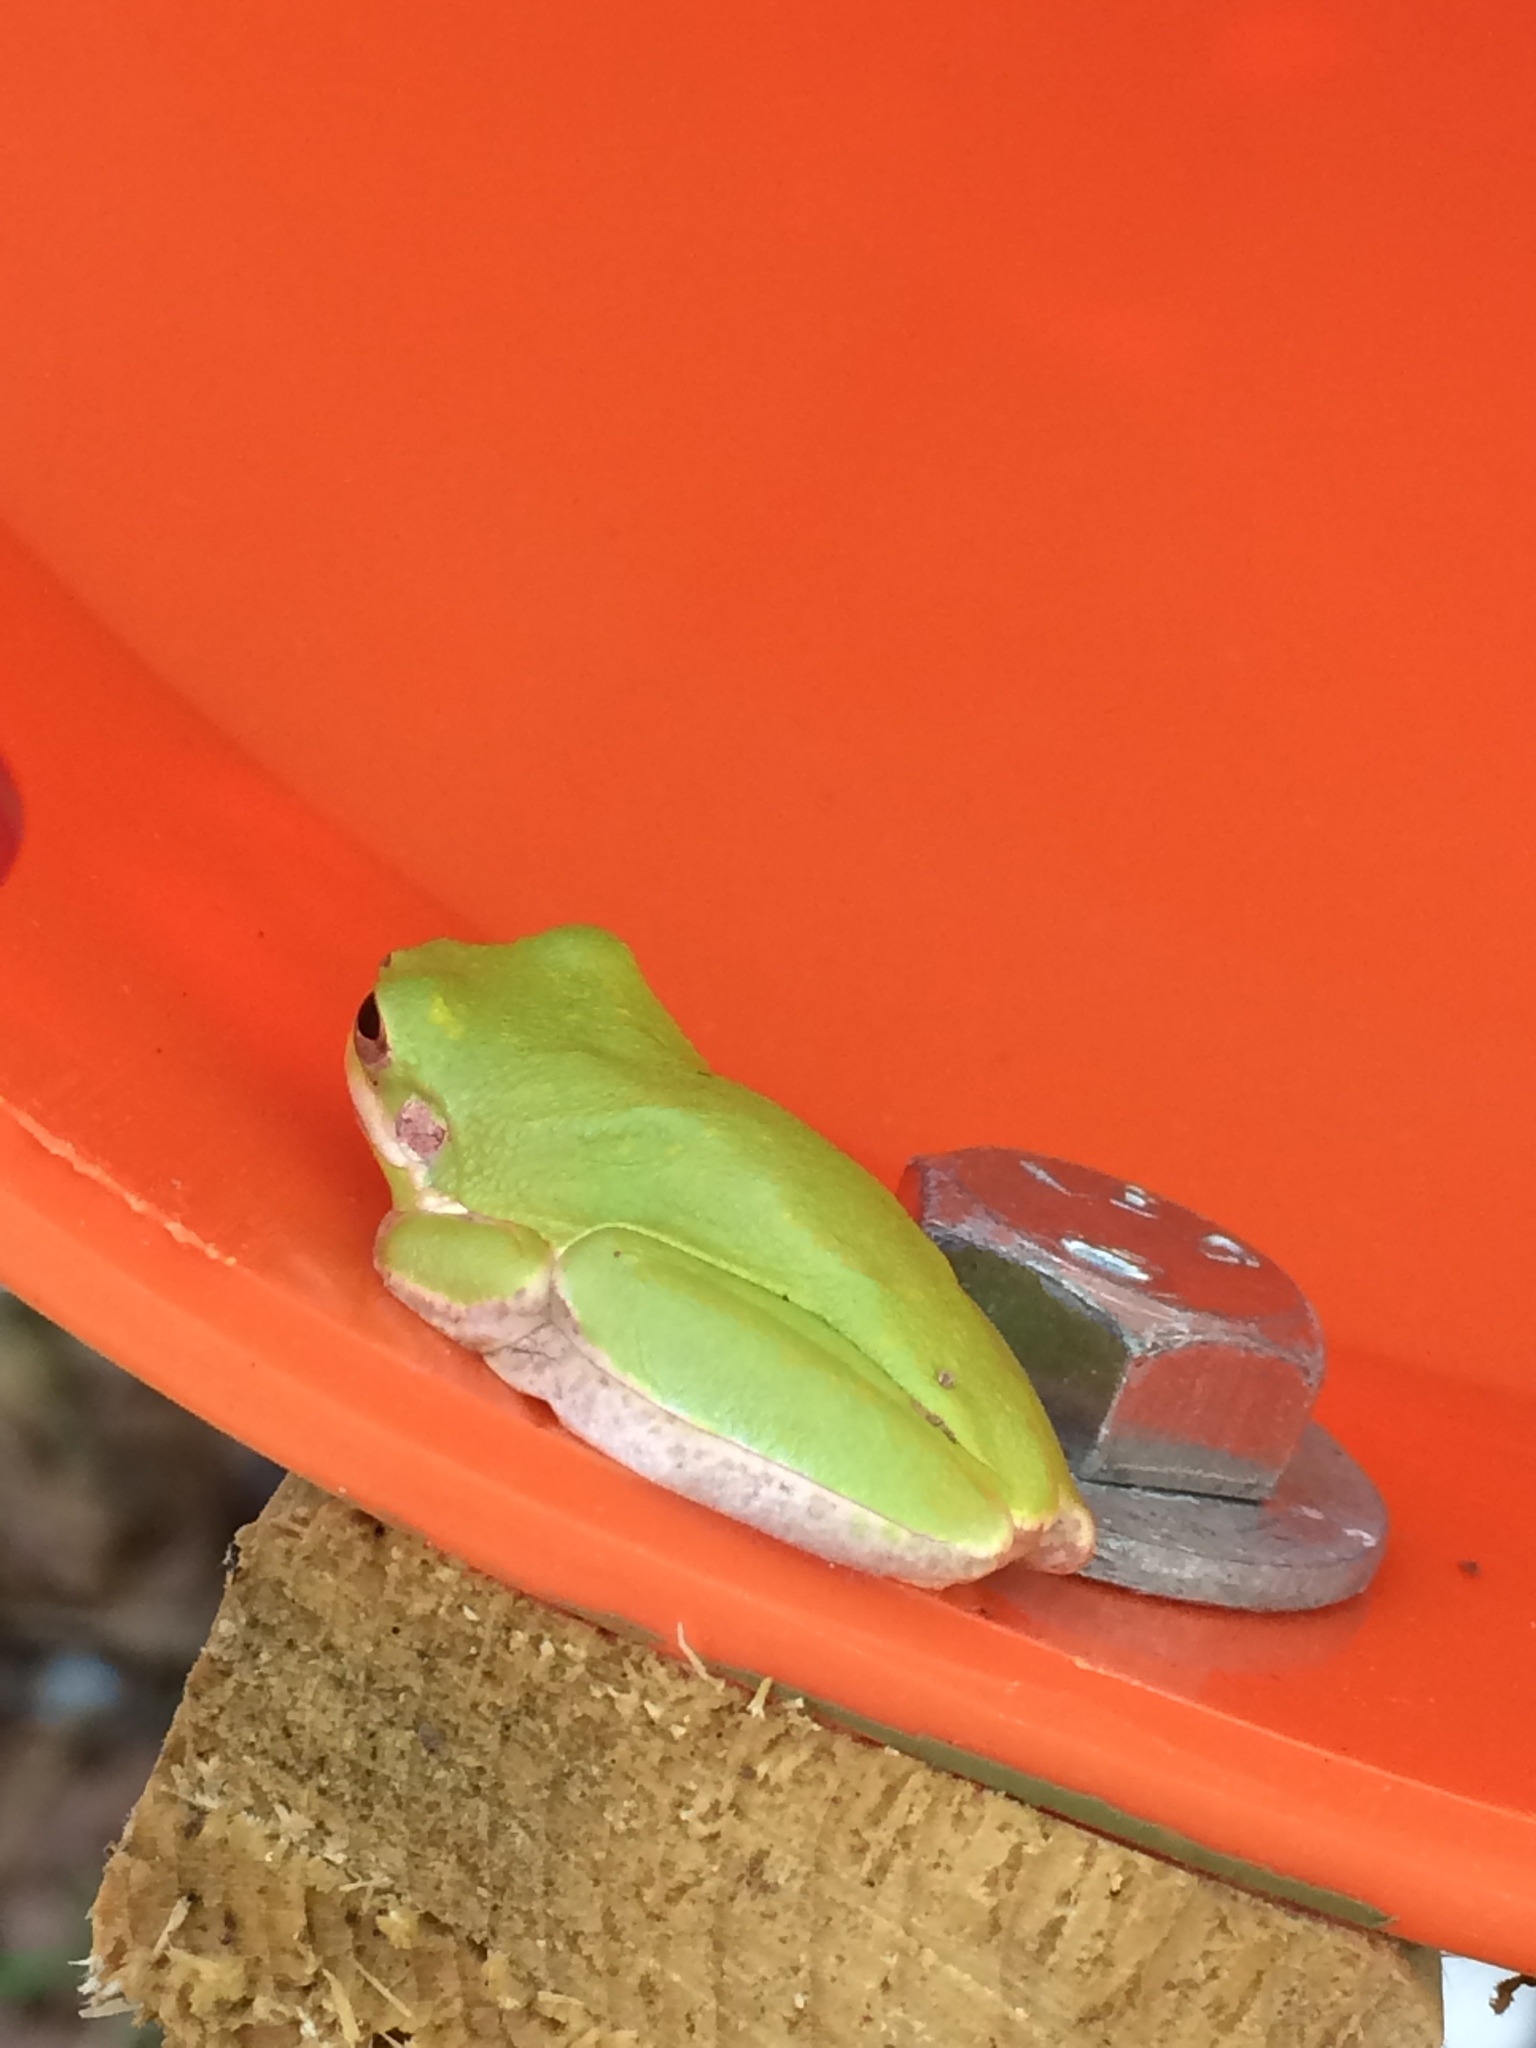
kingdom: Animalia
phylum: Chordata
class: Amphibia
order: Anura
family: Hylidae
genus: Dryophytes
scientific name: Dryophytes squirellus
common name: Squirrel treefrog
